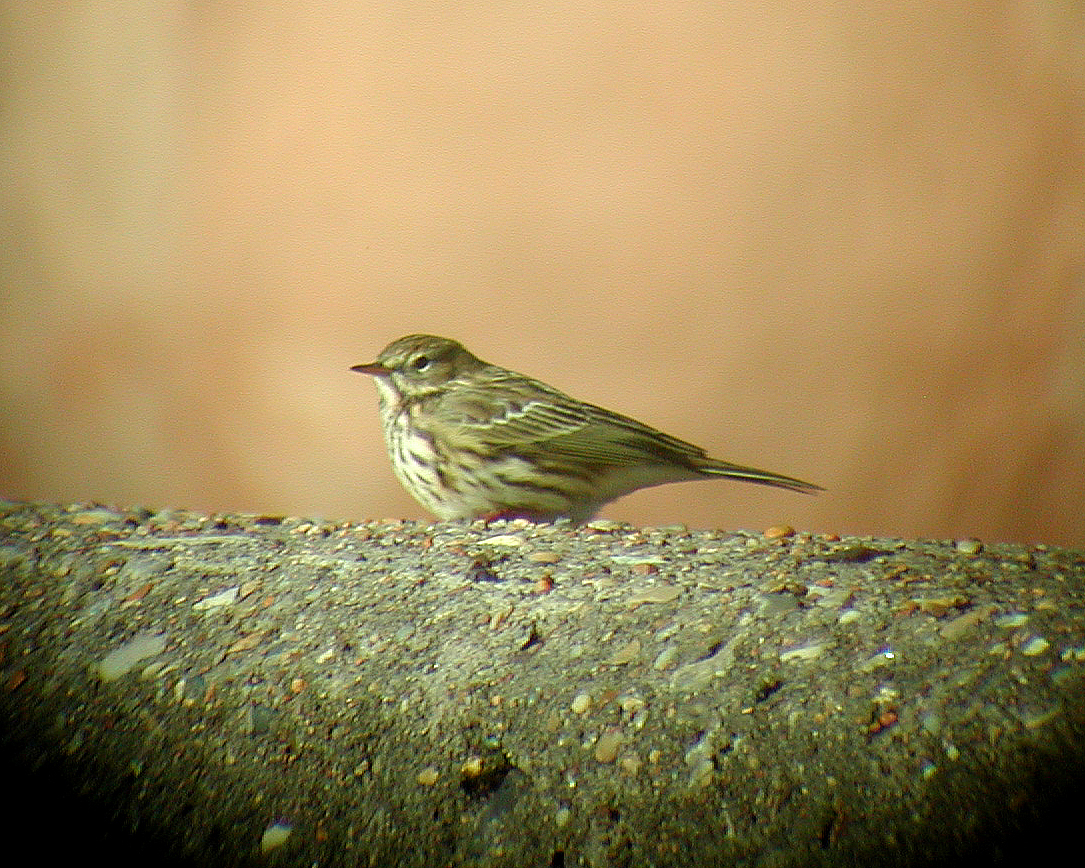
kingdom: Animalia
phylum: Chordata
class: Aves
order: Passeriformes
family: Motacillidae
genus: Anthus
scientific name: Anthus pratensis
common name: Meadow pipit
